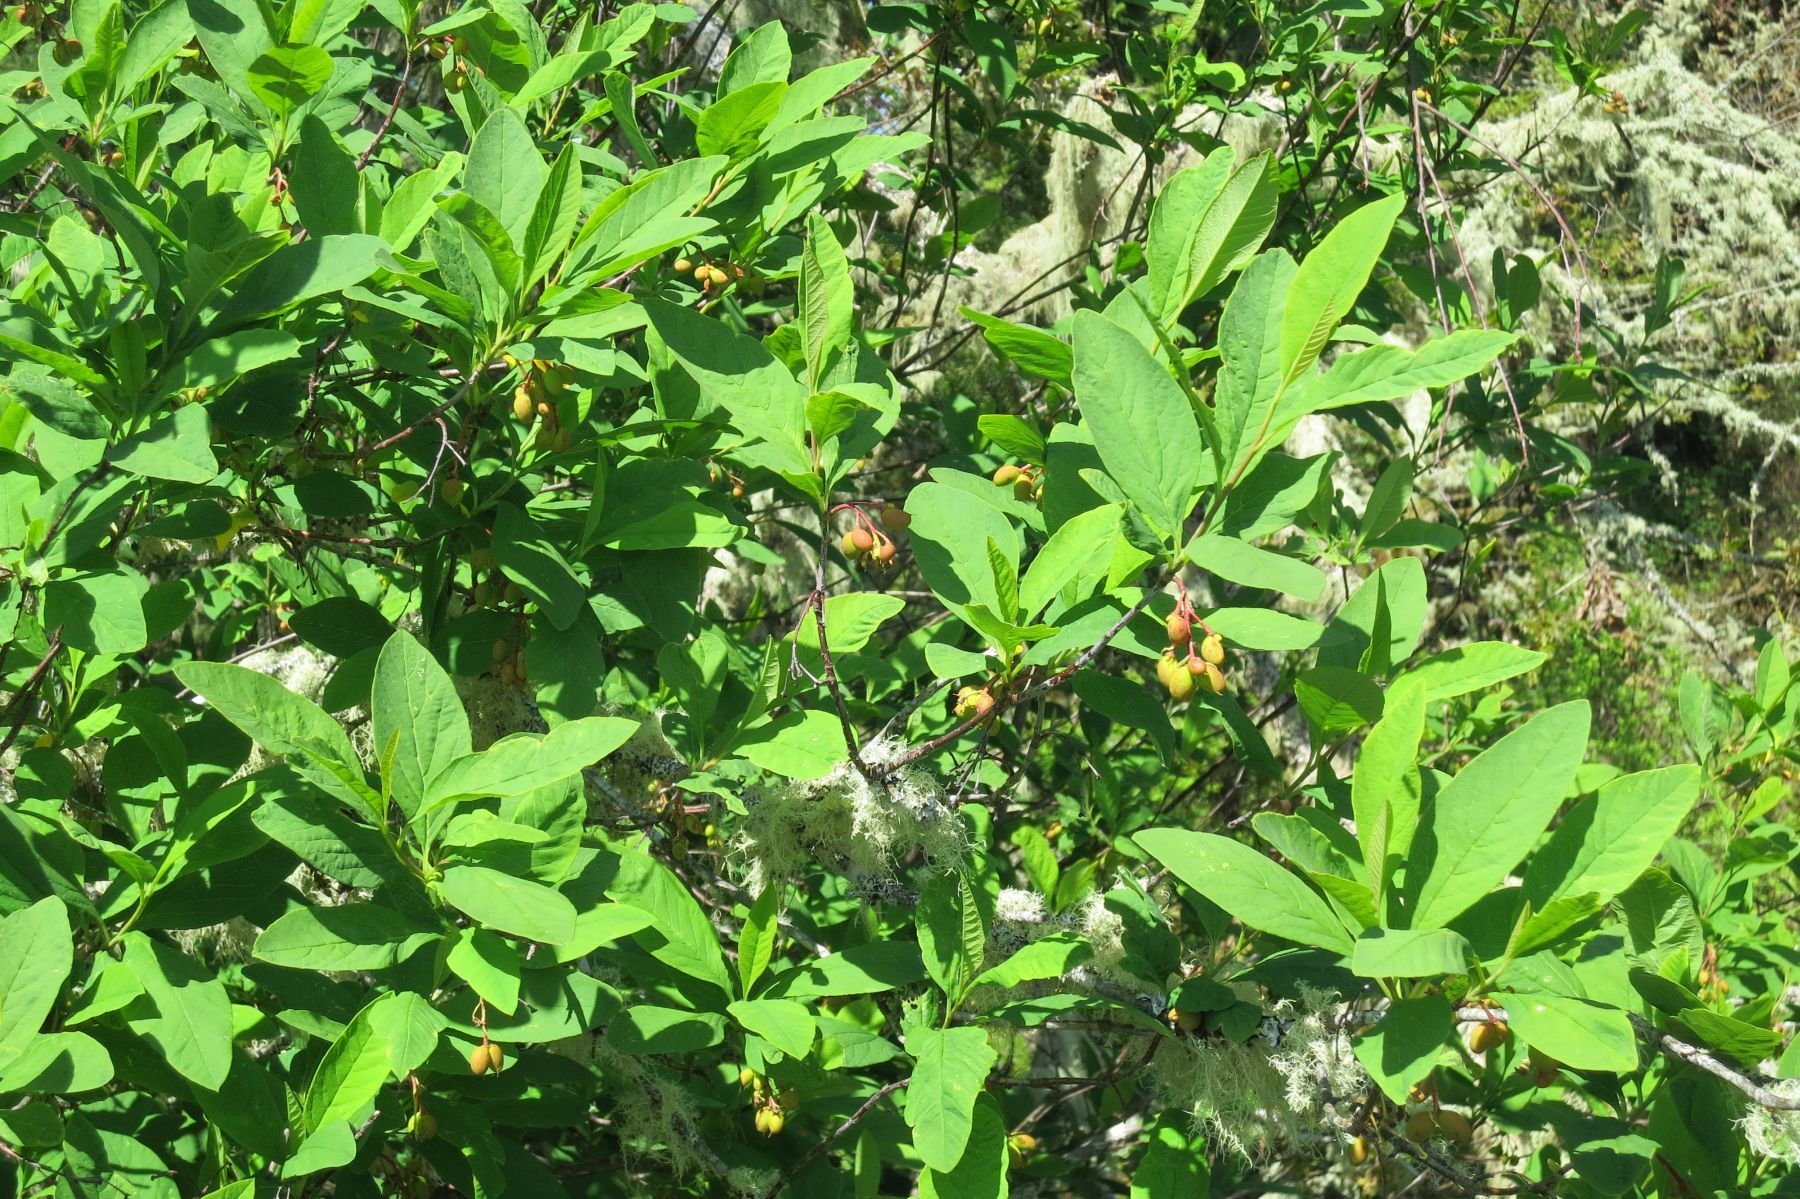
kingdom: Plantae
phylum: Tracheophyta
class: Magnoliopsida
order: Rosales
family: Rosaceae
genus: Oemleria
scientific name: Oemleria cerasiformis
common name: Osoberry
